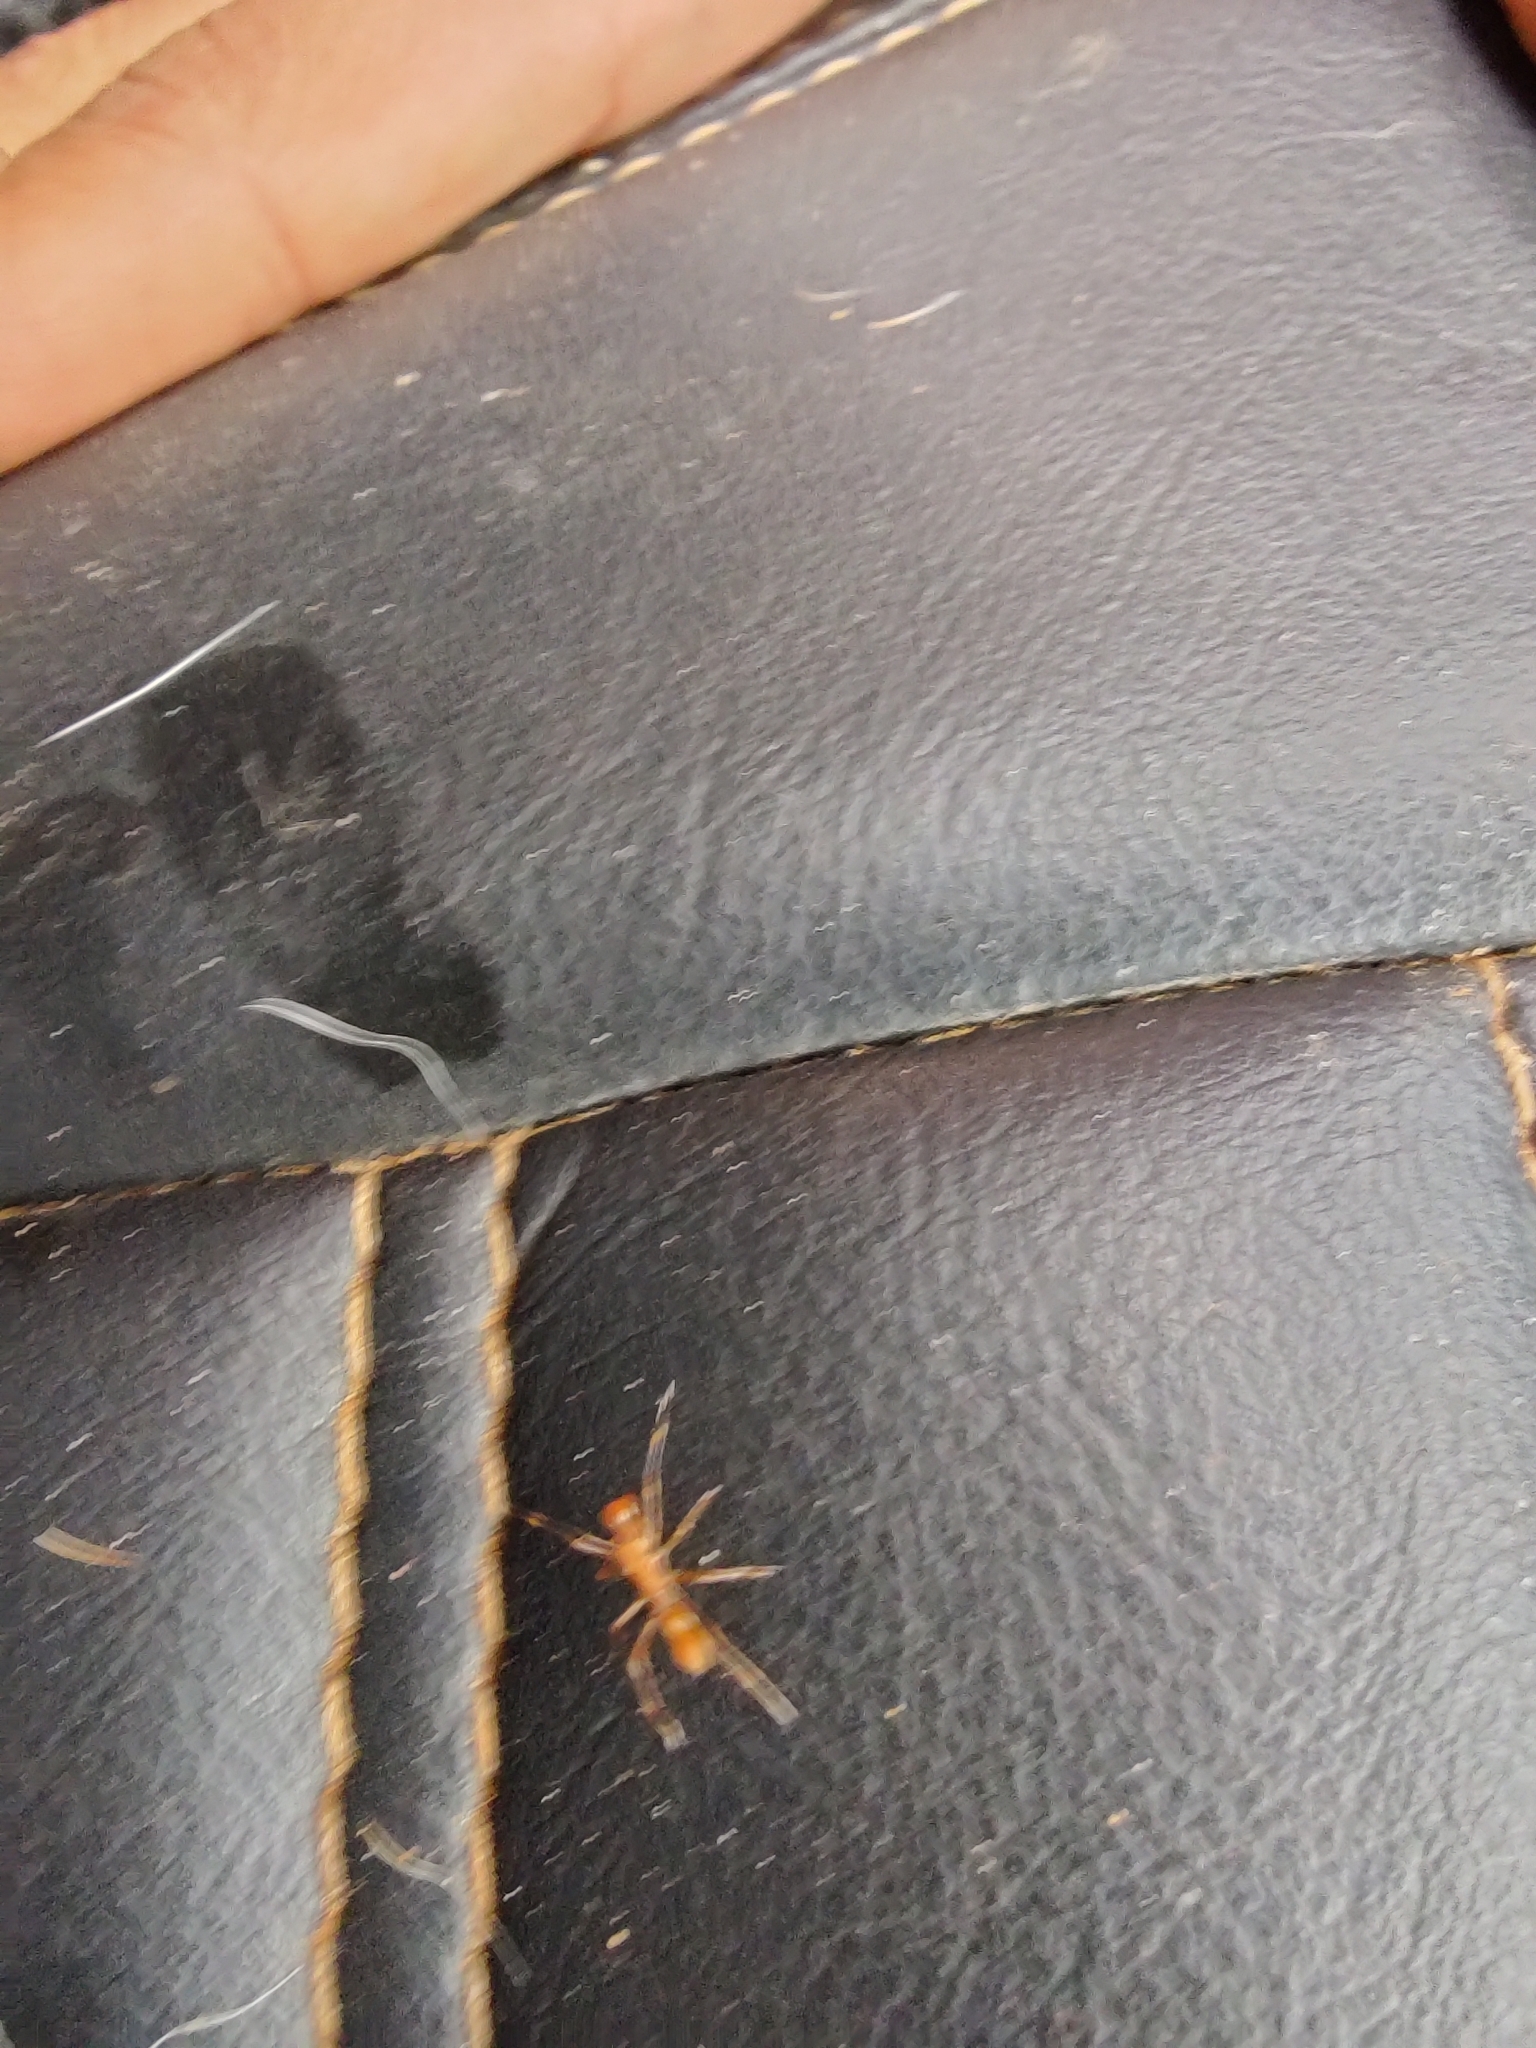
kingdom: Animalia
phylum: Arthropoda
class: Arachnida
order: Araneae
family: Salticidae
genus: Myrmaplata
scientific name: Myrmaplata plataleoides
